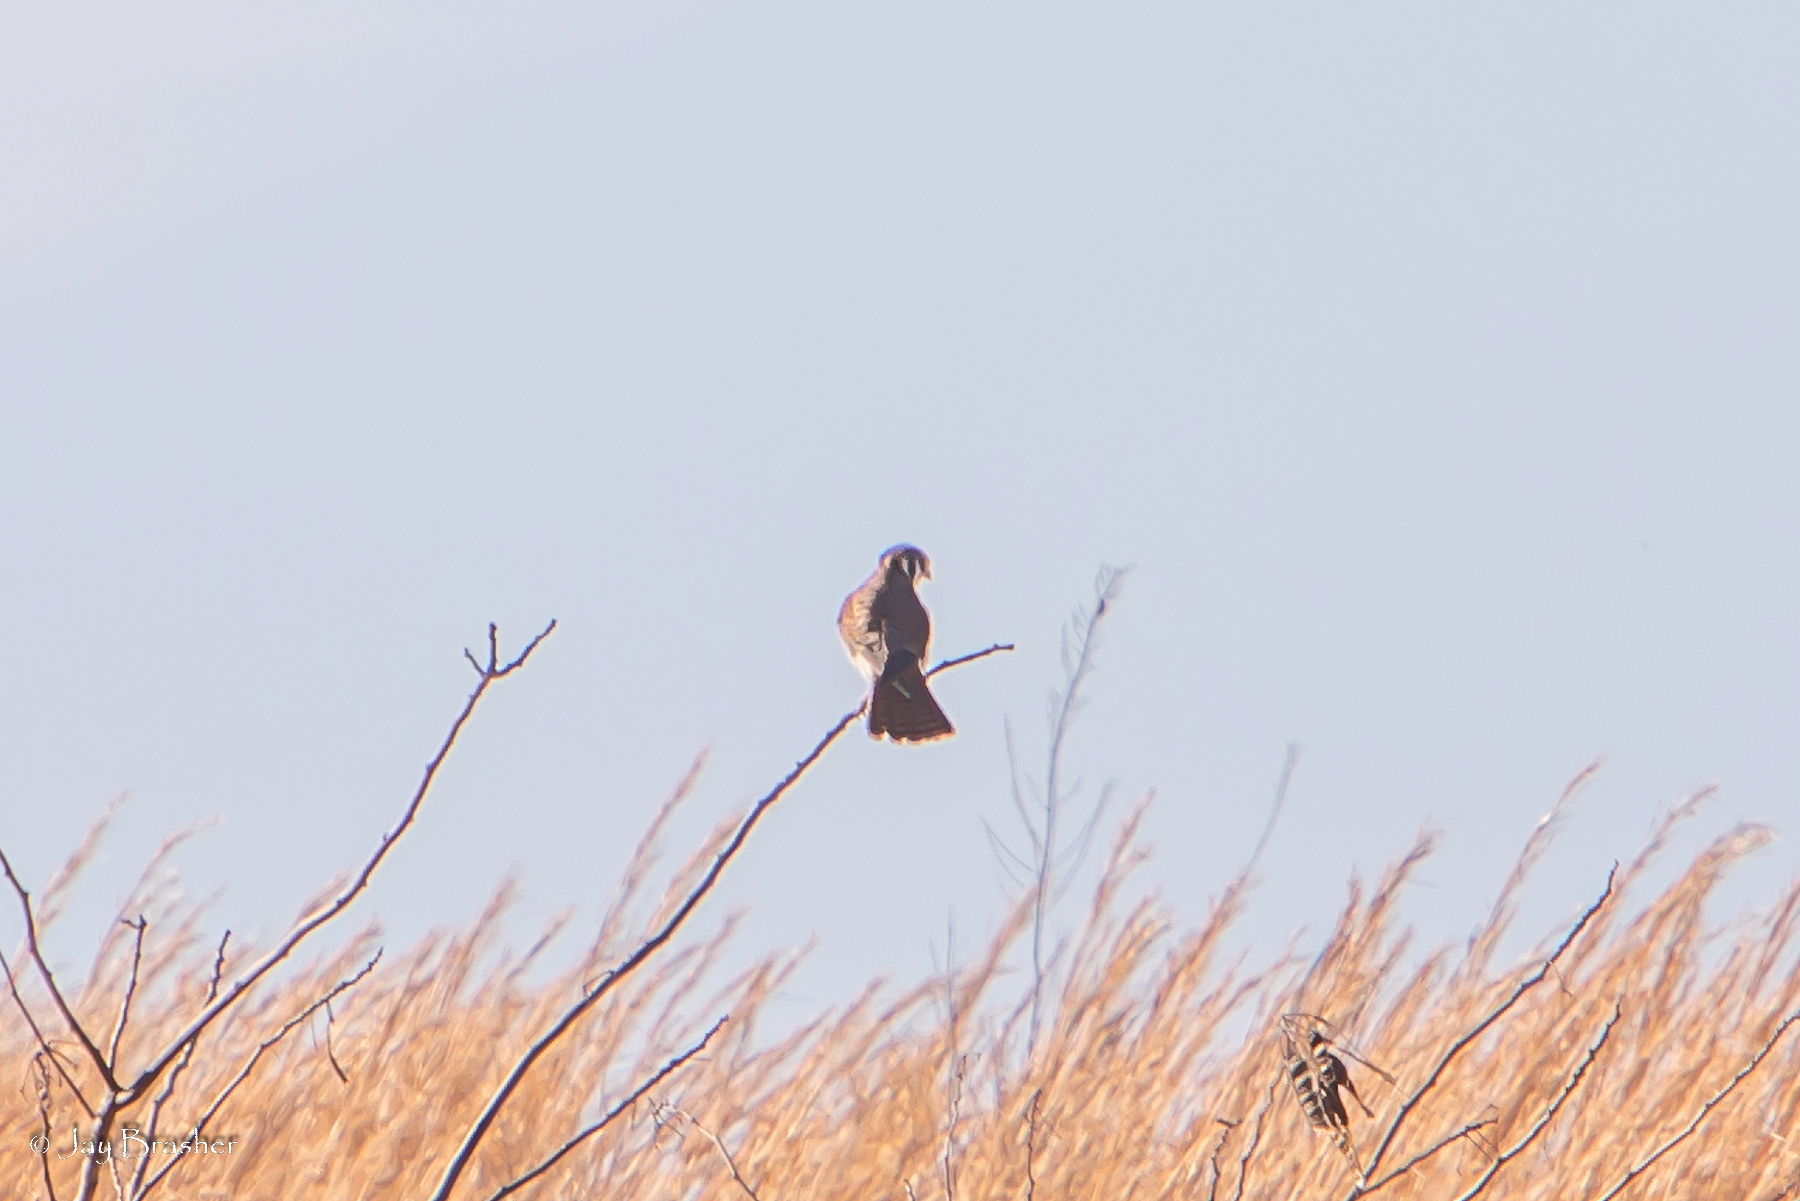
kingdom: Animalia
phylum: Chordata
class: Aves
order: Falconiformes
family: Falconidae
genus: Falco
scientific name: Falco sparverius
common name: American kestrel
